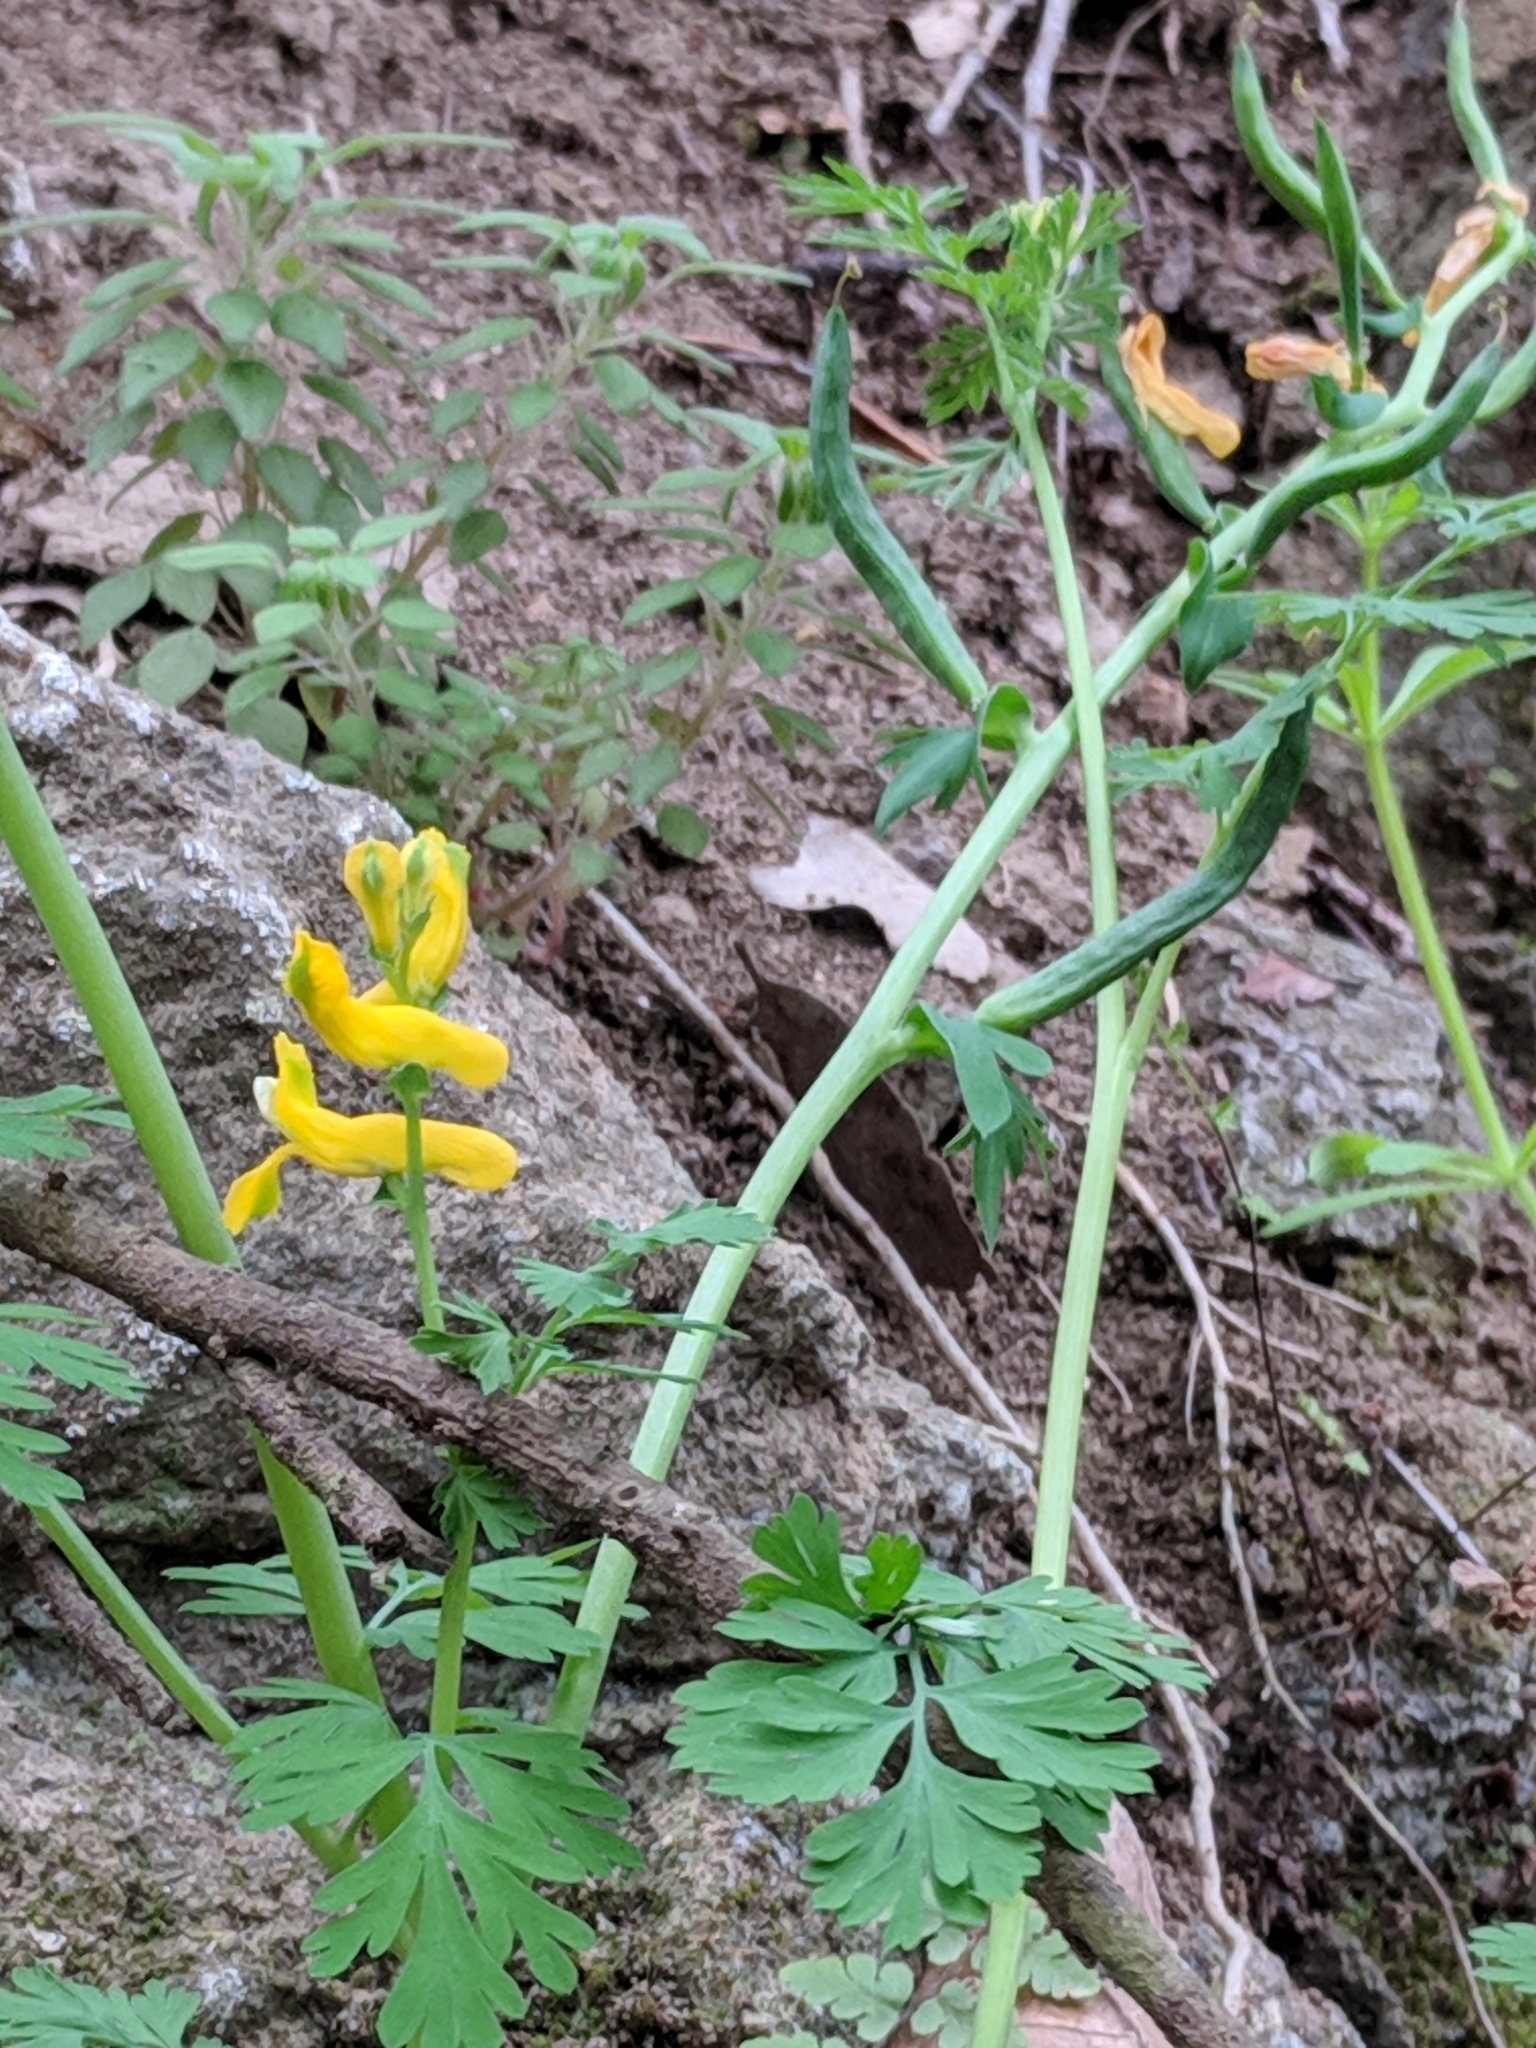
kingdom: Plantae
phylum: Tracheophyta
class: Magnoliopsida
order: Ranunculales
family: Papaveraceae
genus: Corydalis
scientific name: Corydalis curvisiliqua
